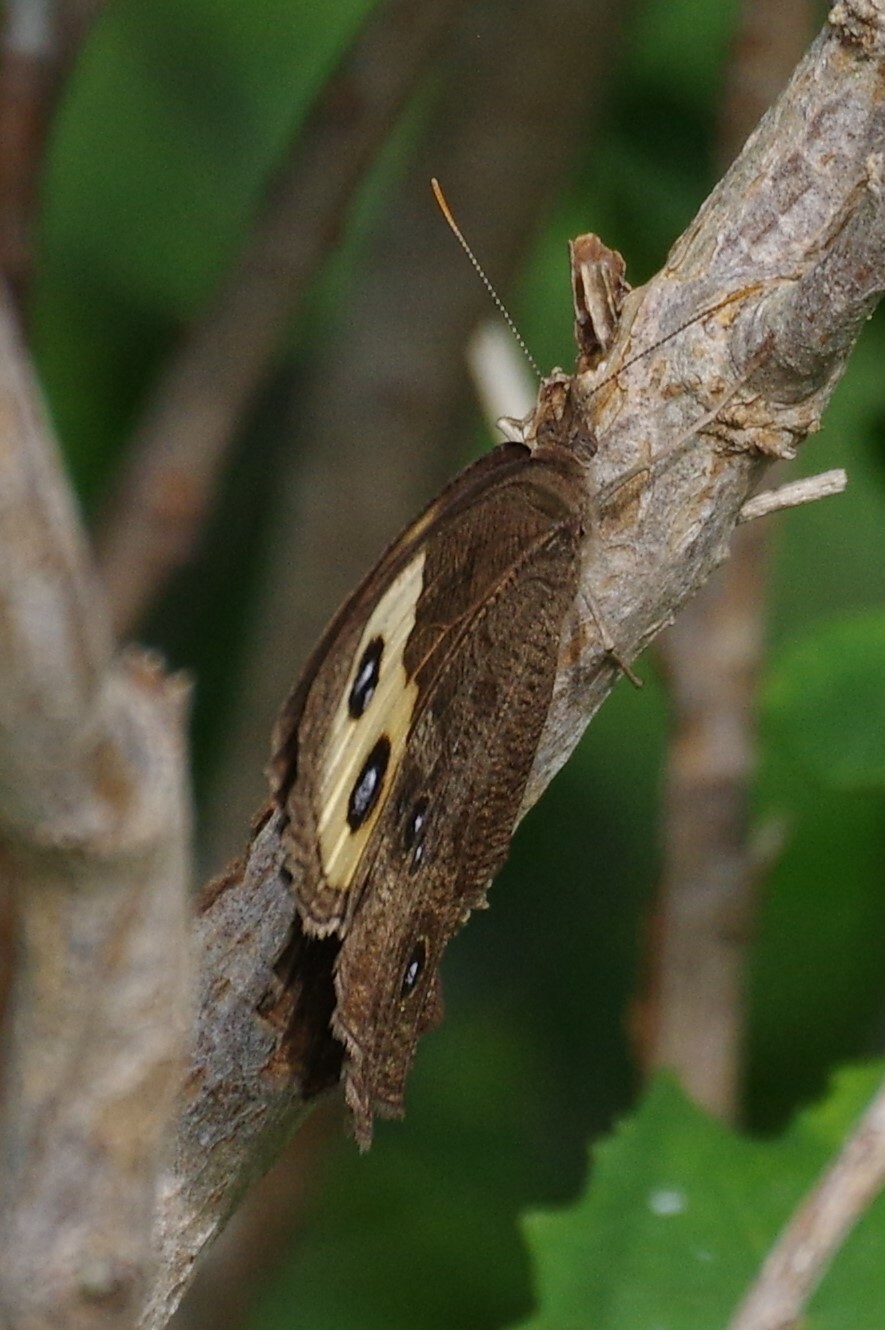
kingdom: Animalia
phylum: Arthropoda
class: Insecta
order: Lepidoptera
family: Nymphalidae
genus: Cercyonis
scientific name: Cercyonis pegala
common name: Common wood-nymph
